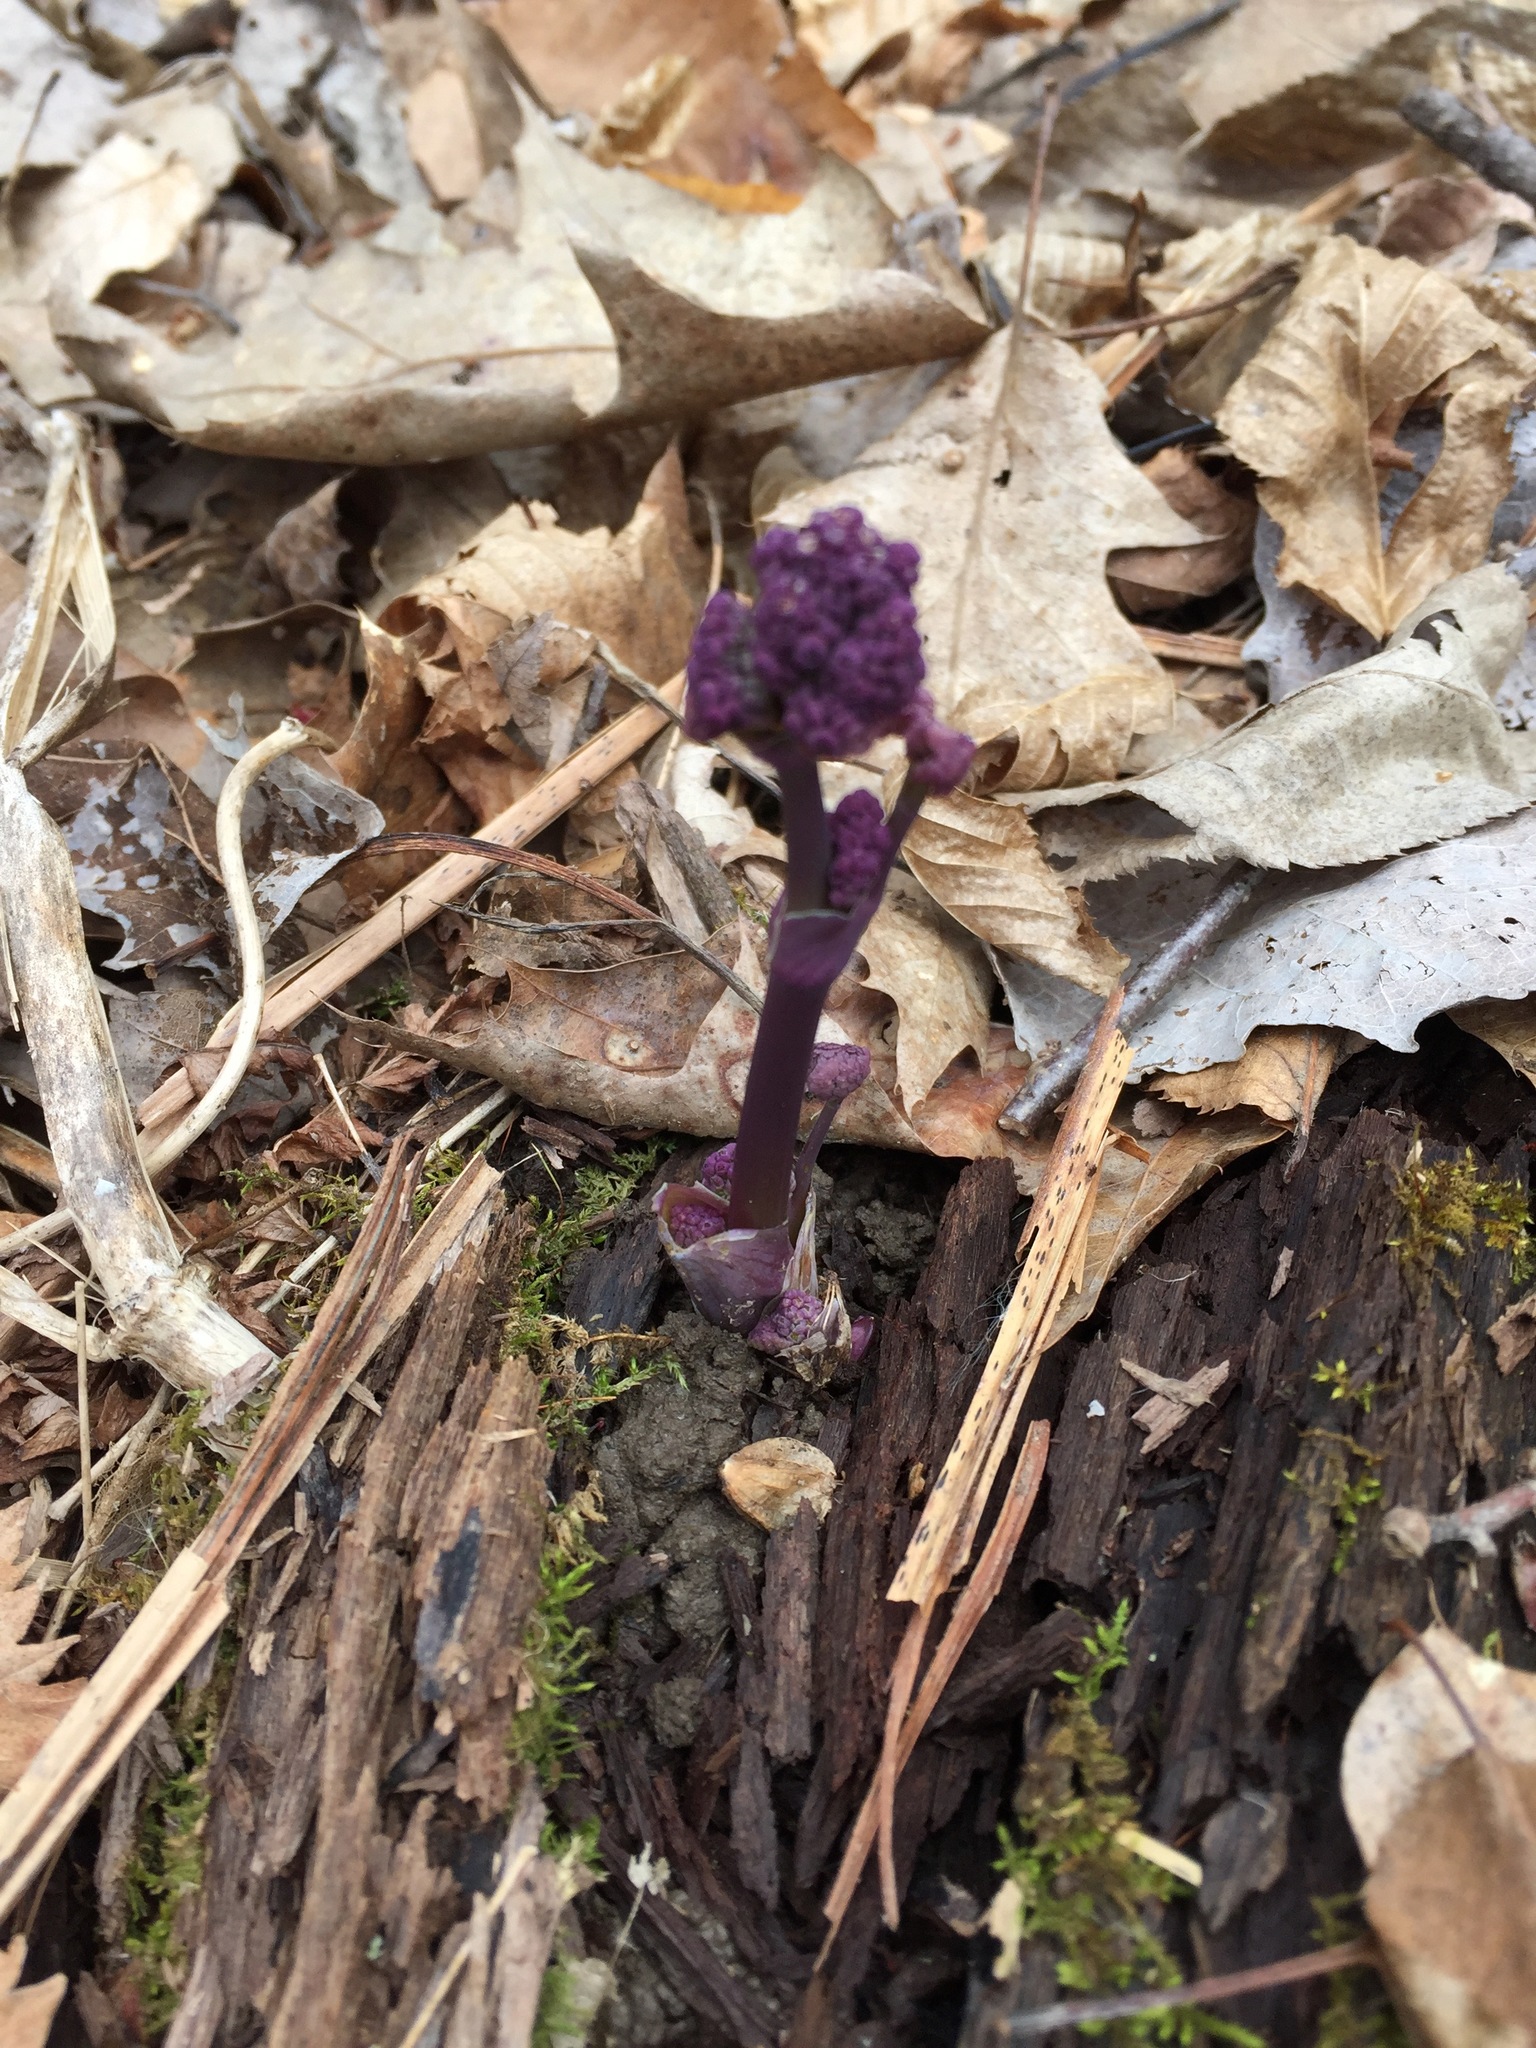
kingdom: Plantae
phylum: Tracheophyta
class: Magnoliopsida
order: Ranunculales
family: Ranunculaceae
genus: Thalictrum
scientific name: Thalictrum dioicum
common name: Early meadow-rue
